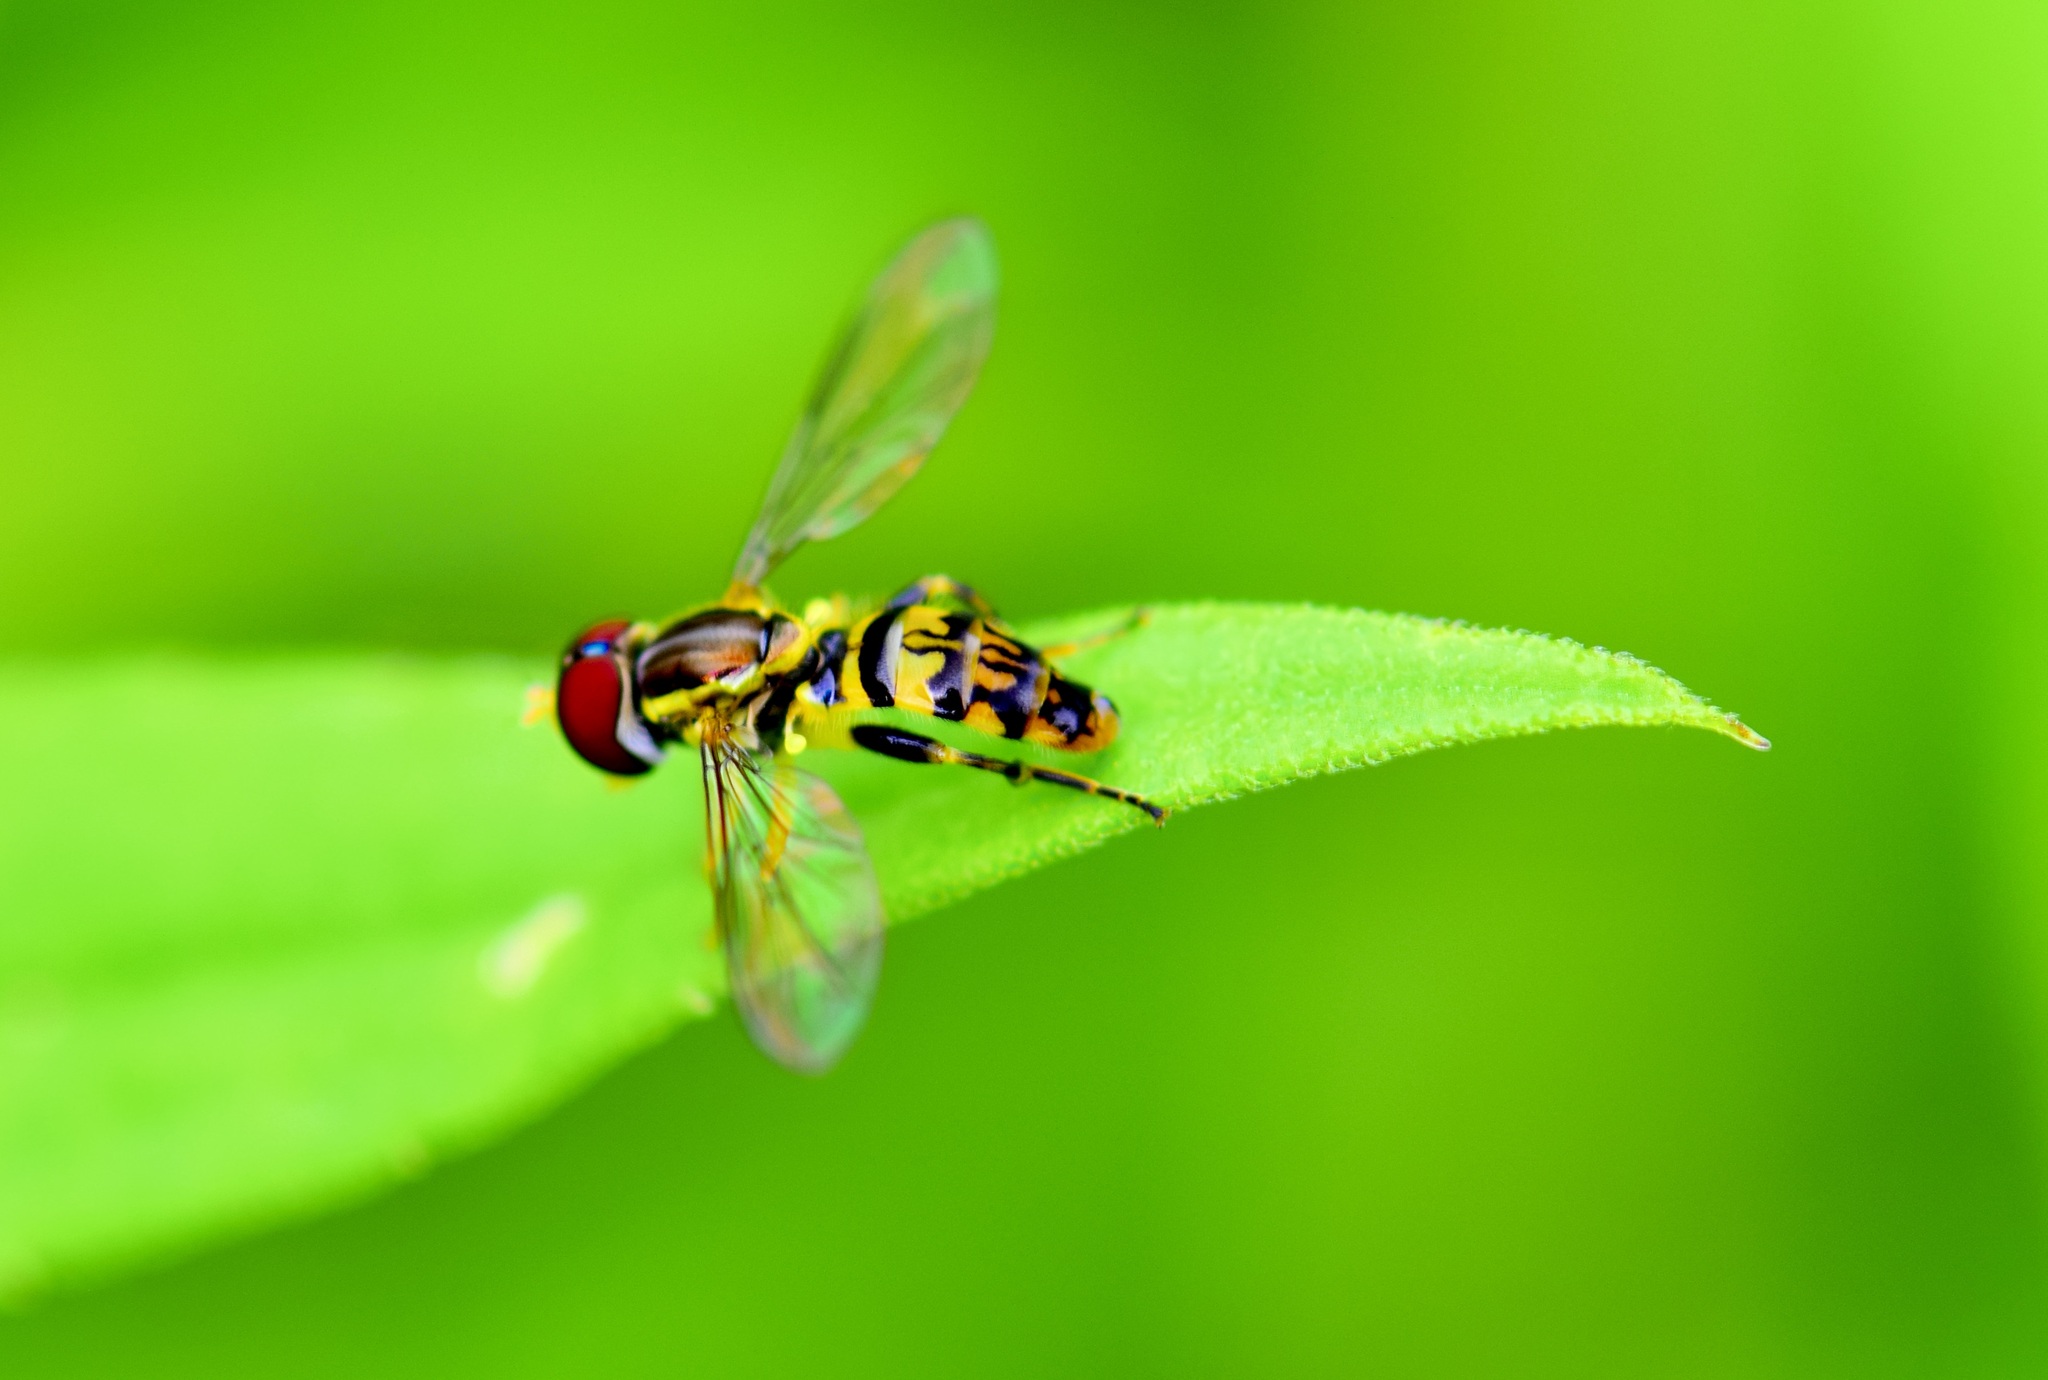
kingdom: Animalia
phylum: Arthropoda
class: Insecta
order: Diptera
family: Syrphidae
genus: Toxomerus
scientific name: Toxomerus geminatus
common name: Eastern calligrapher
